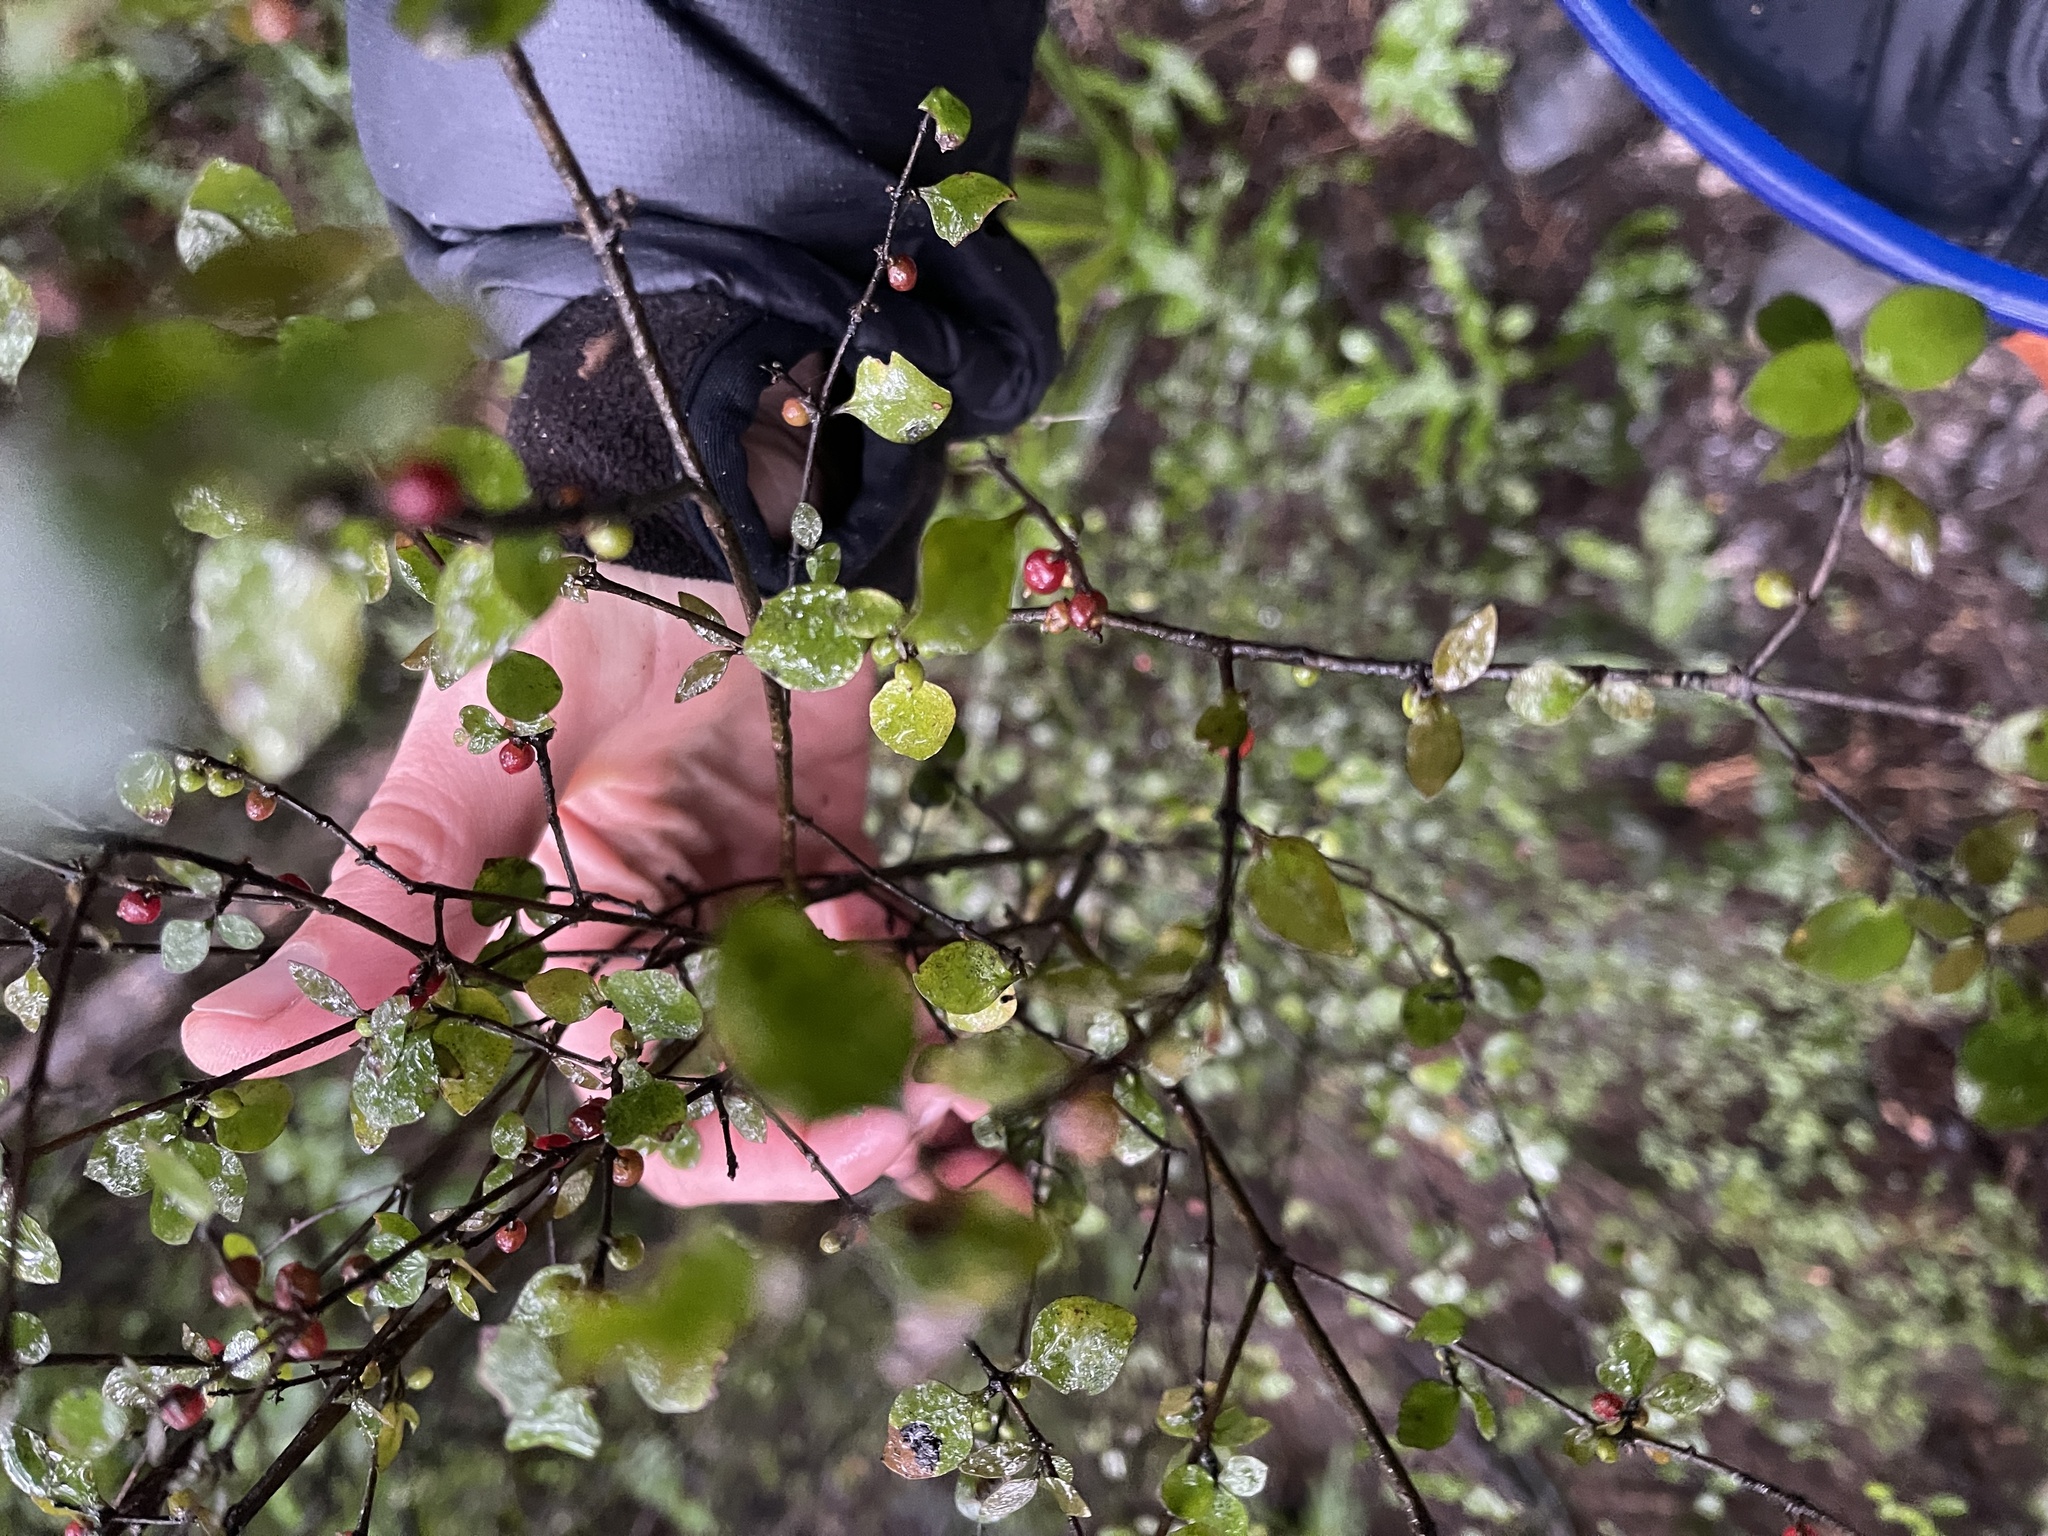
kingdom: Plantae
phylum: Tracheophyta
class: Magnoliopsida
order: Gentianales
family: Rubiaceae
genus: Coprosma
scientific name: Coprosma rhamnoides
